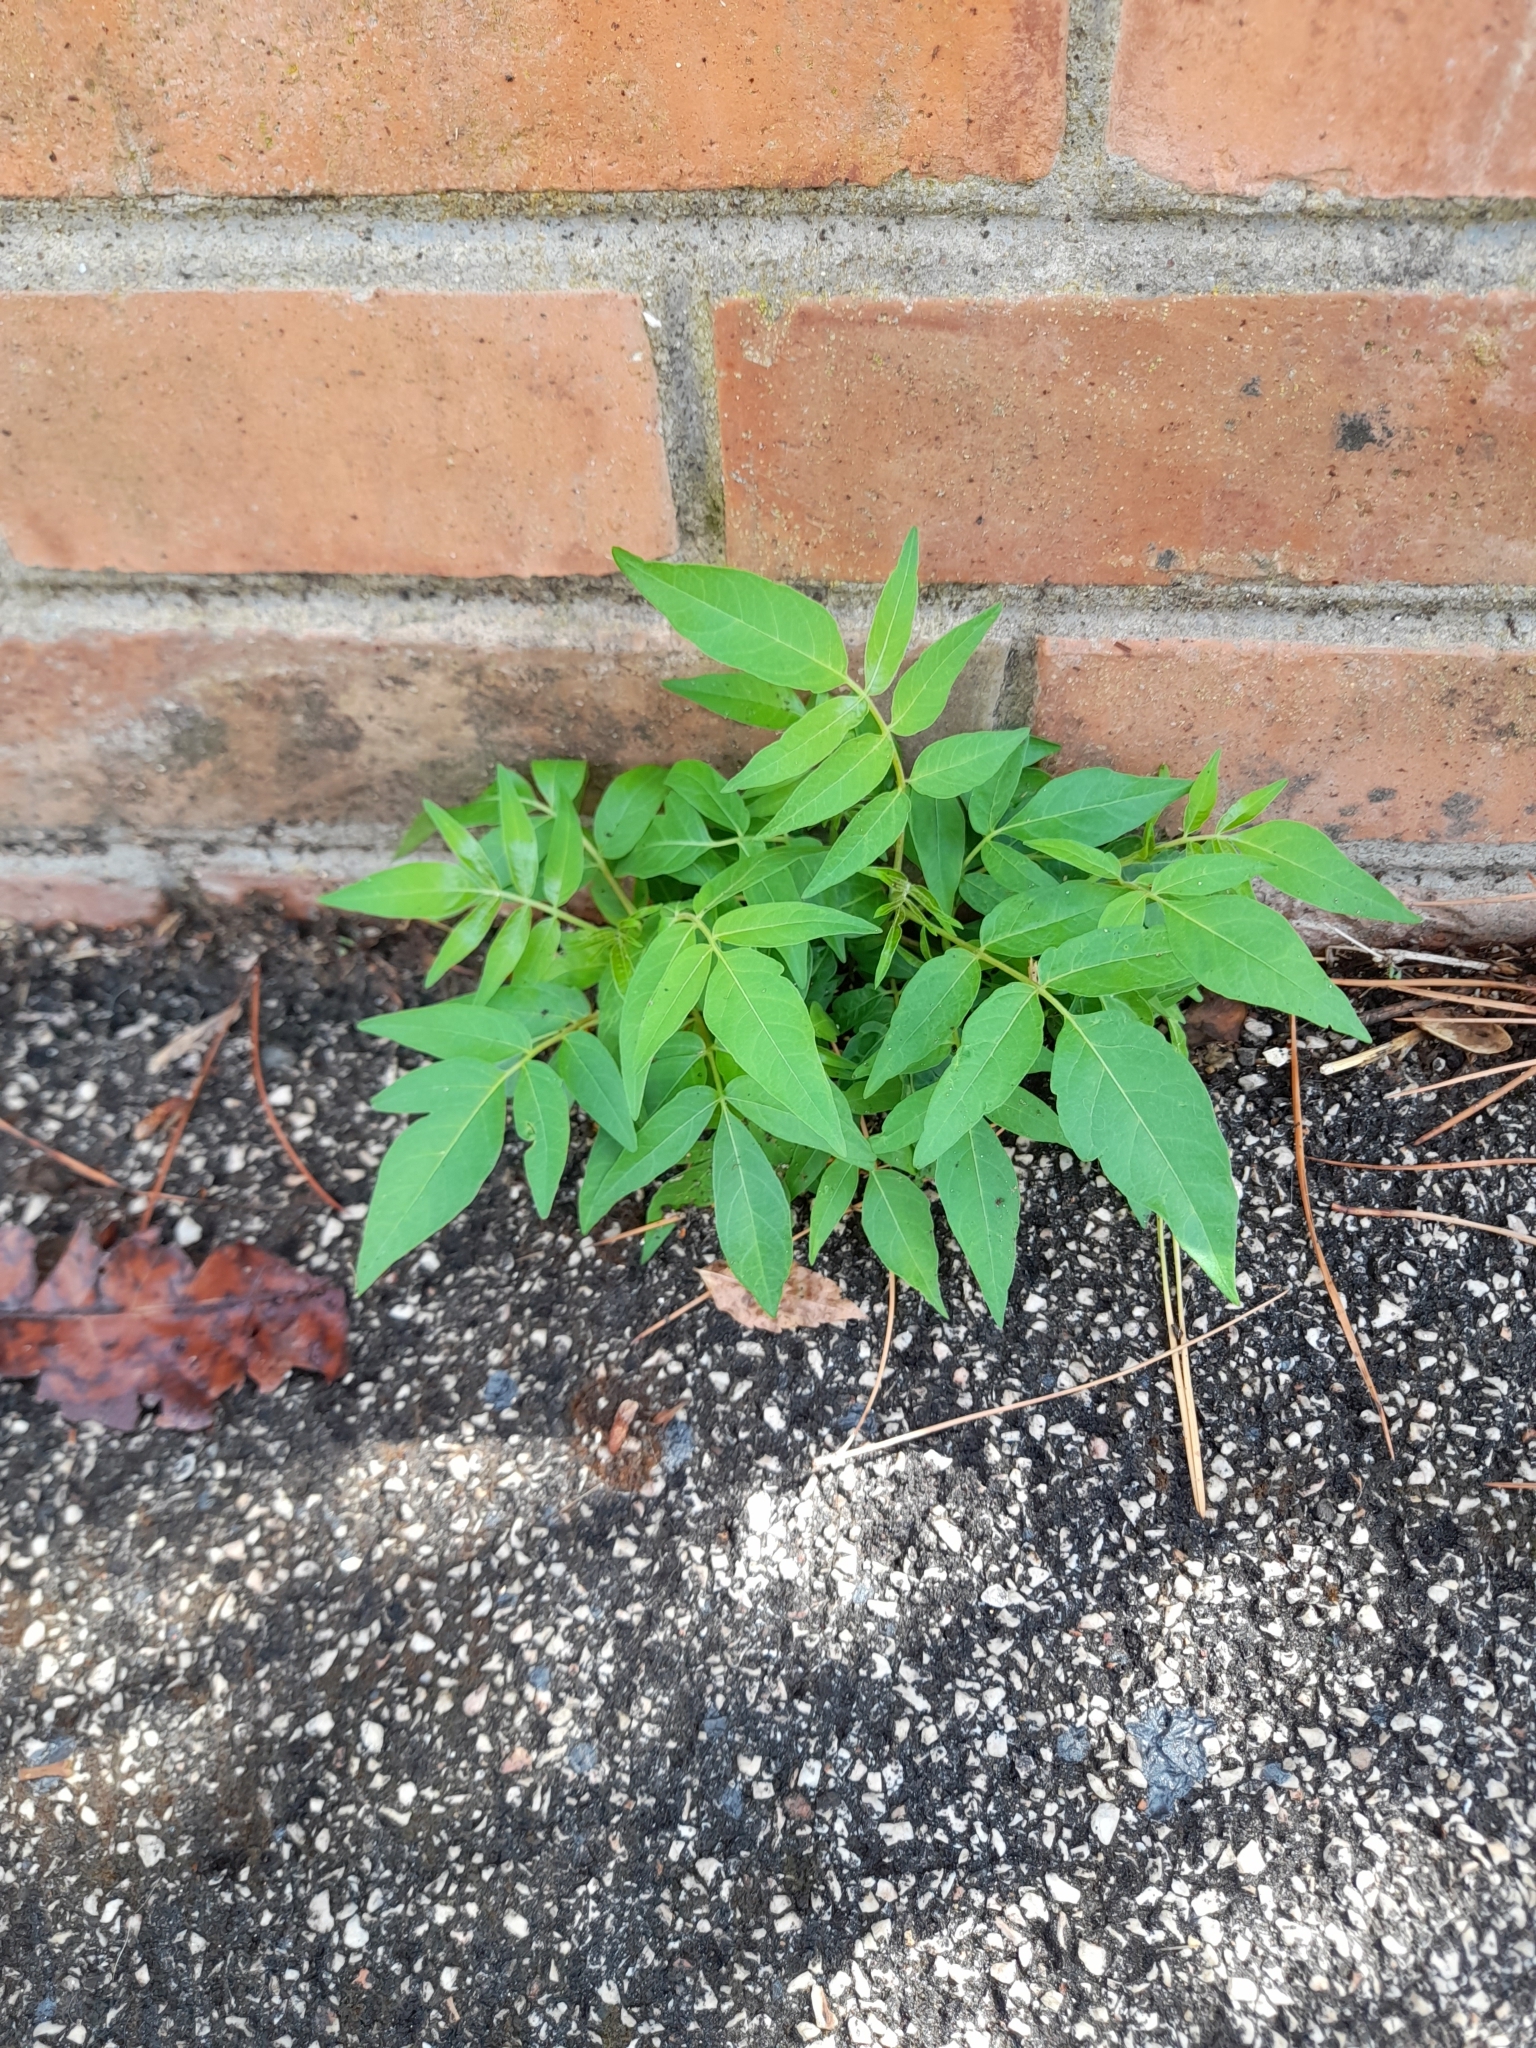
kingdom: Plantae
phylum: Tracheophyta
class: Magnoliopsida
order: Sapindales
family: Simaroubaceae
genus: Ailanthus
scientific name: Ailanthus altissima
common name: Tree-of-heaven
